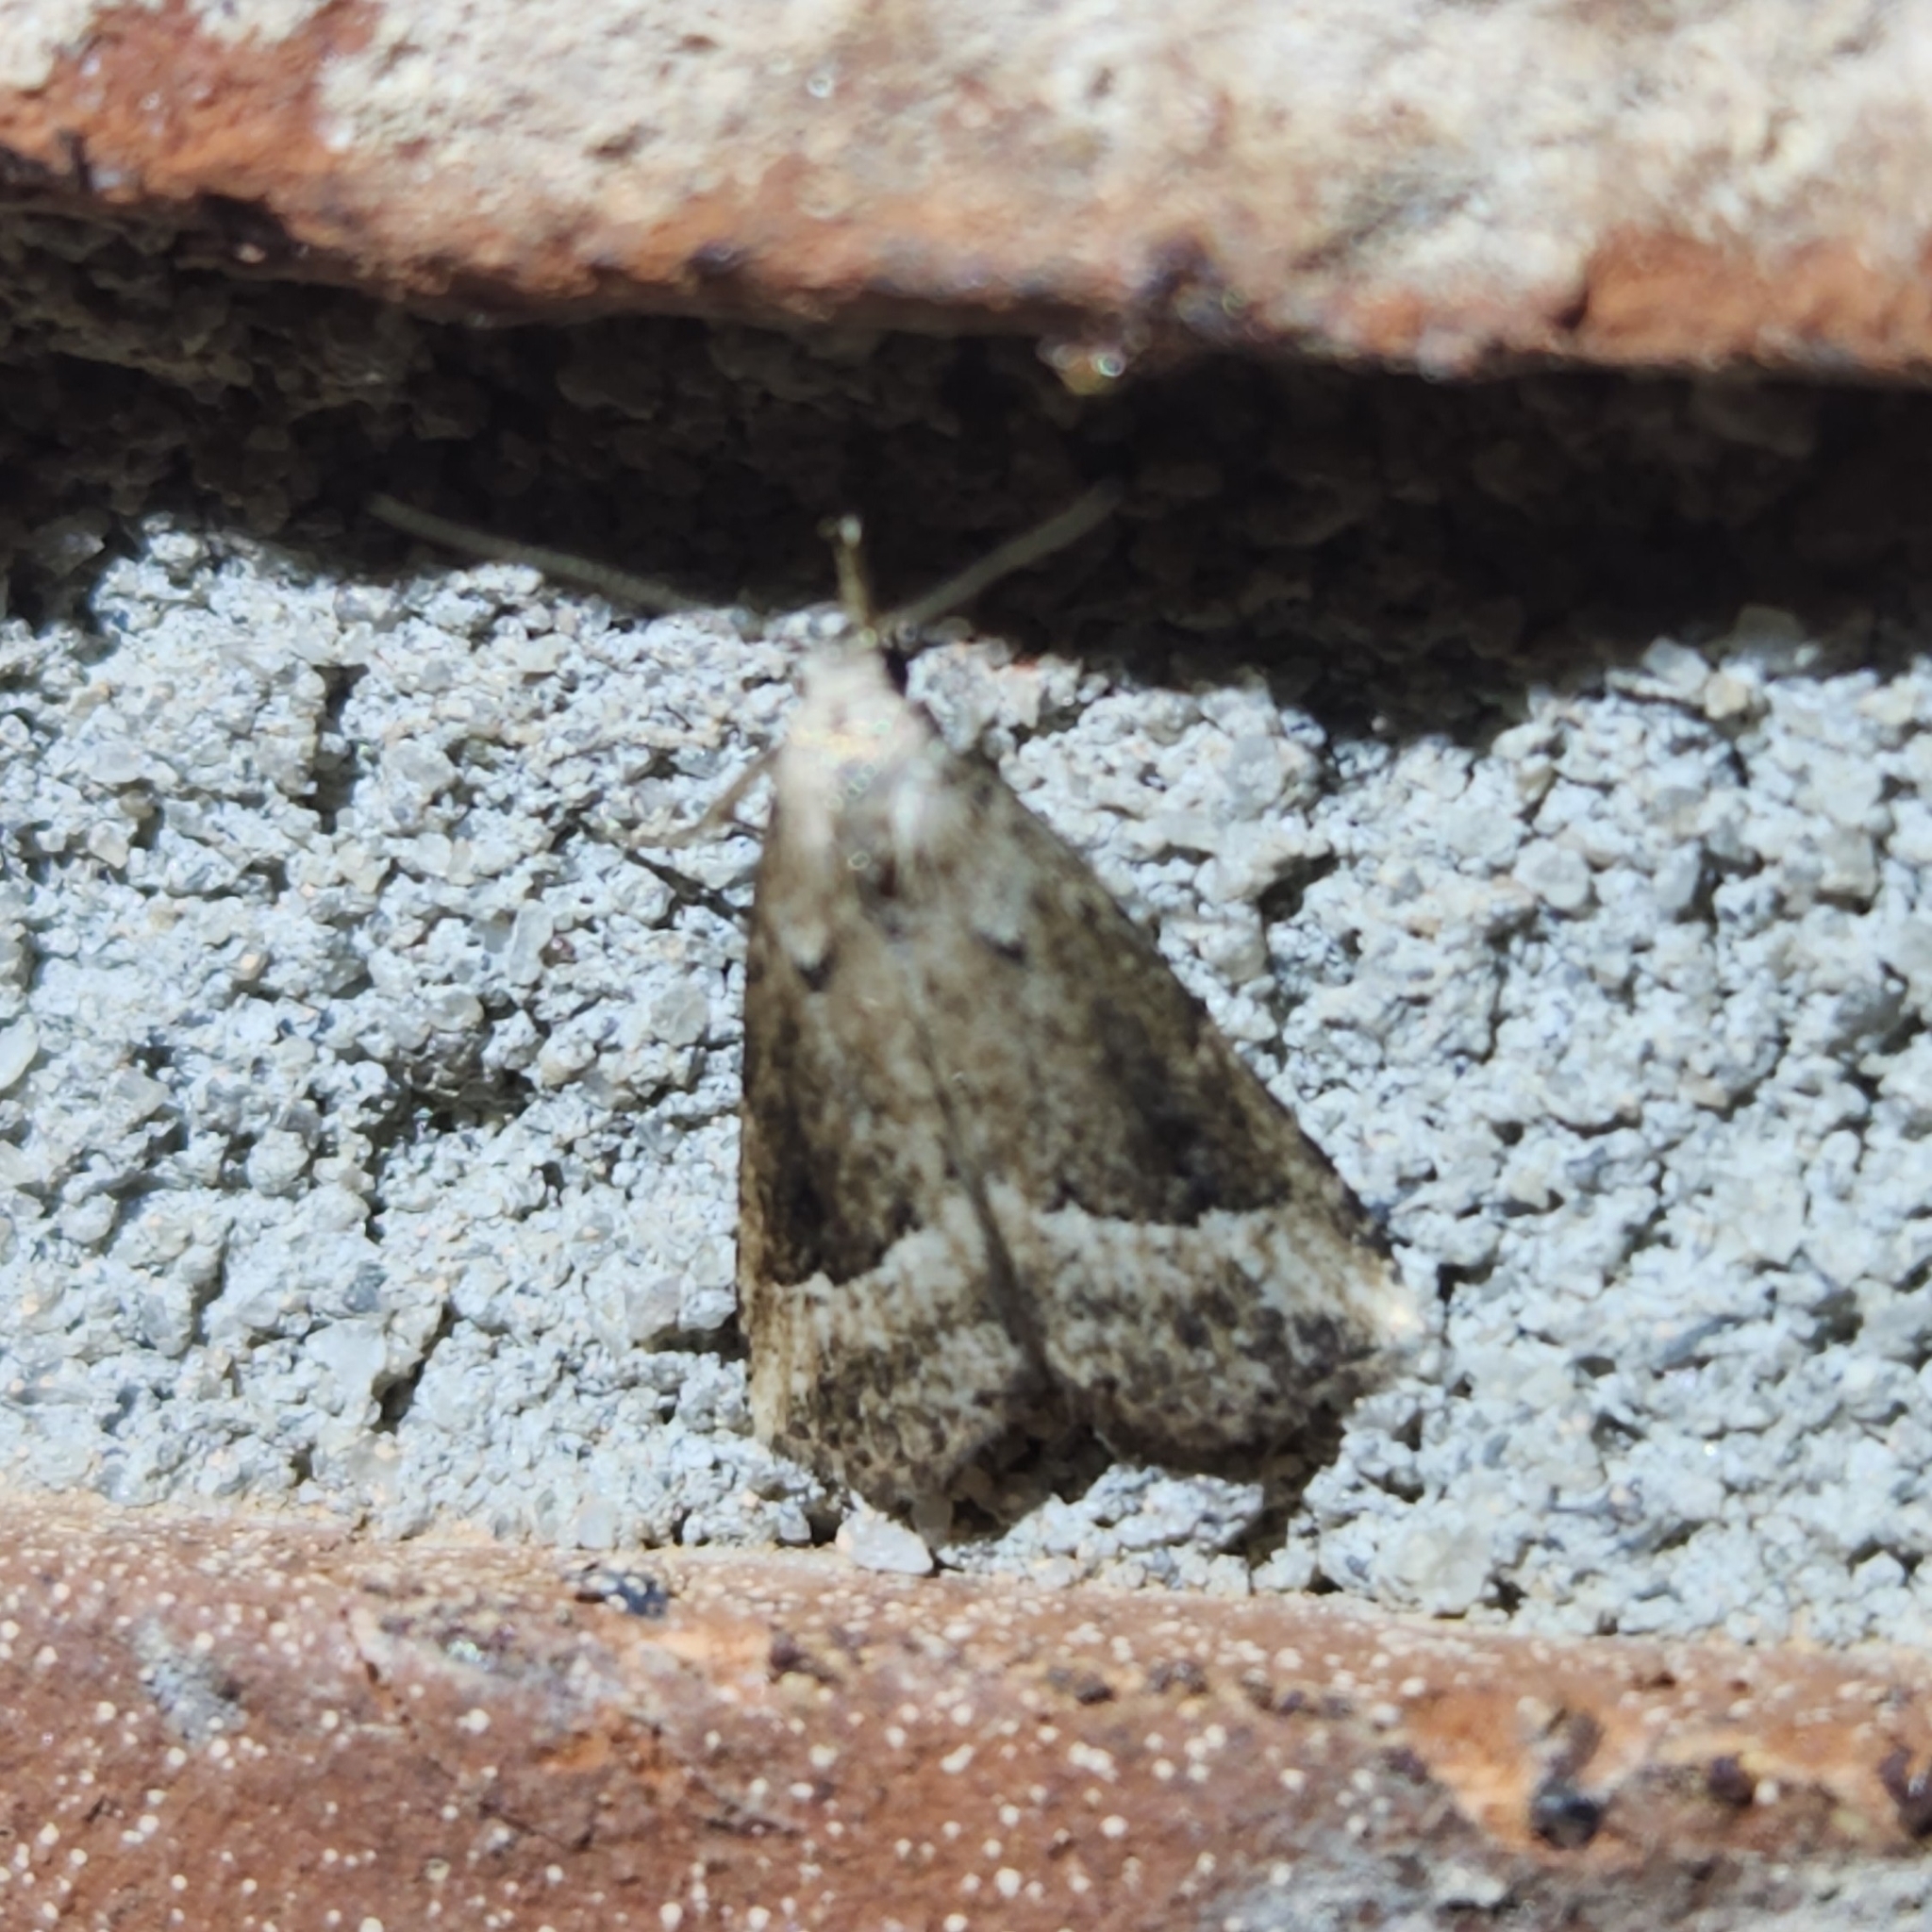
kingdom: Animalia
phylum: Arthropoda
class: Insecta
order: Lepidoptera
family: Erebidae
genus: Schrankia
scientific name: Schrankia
